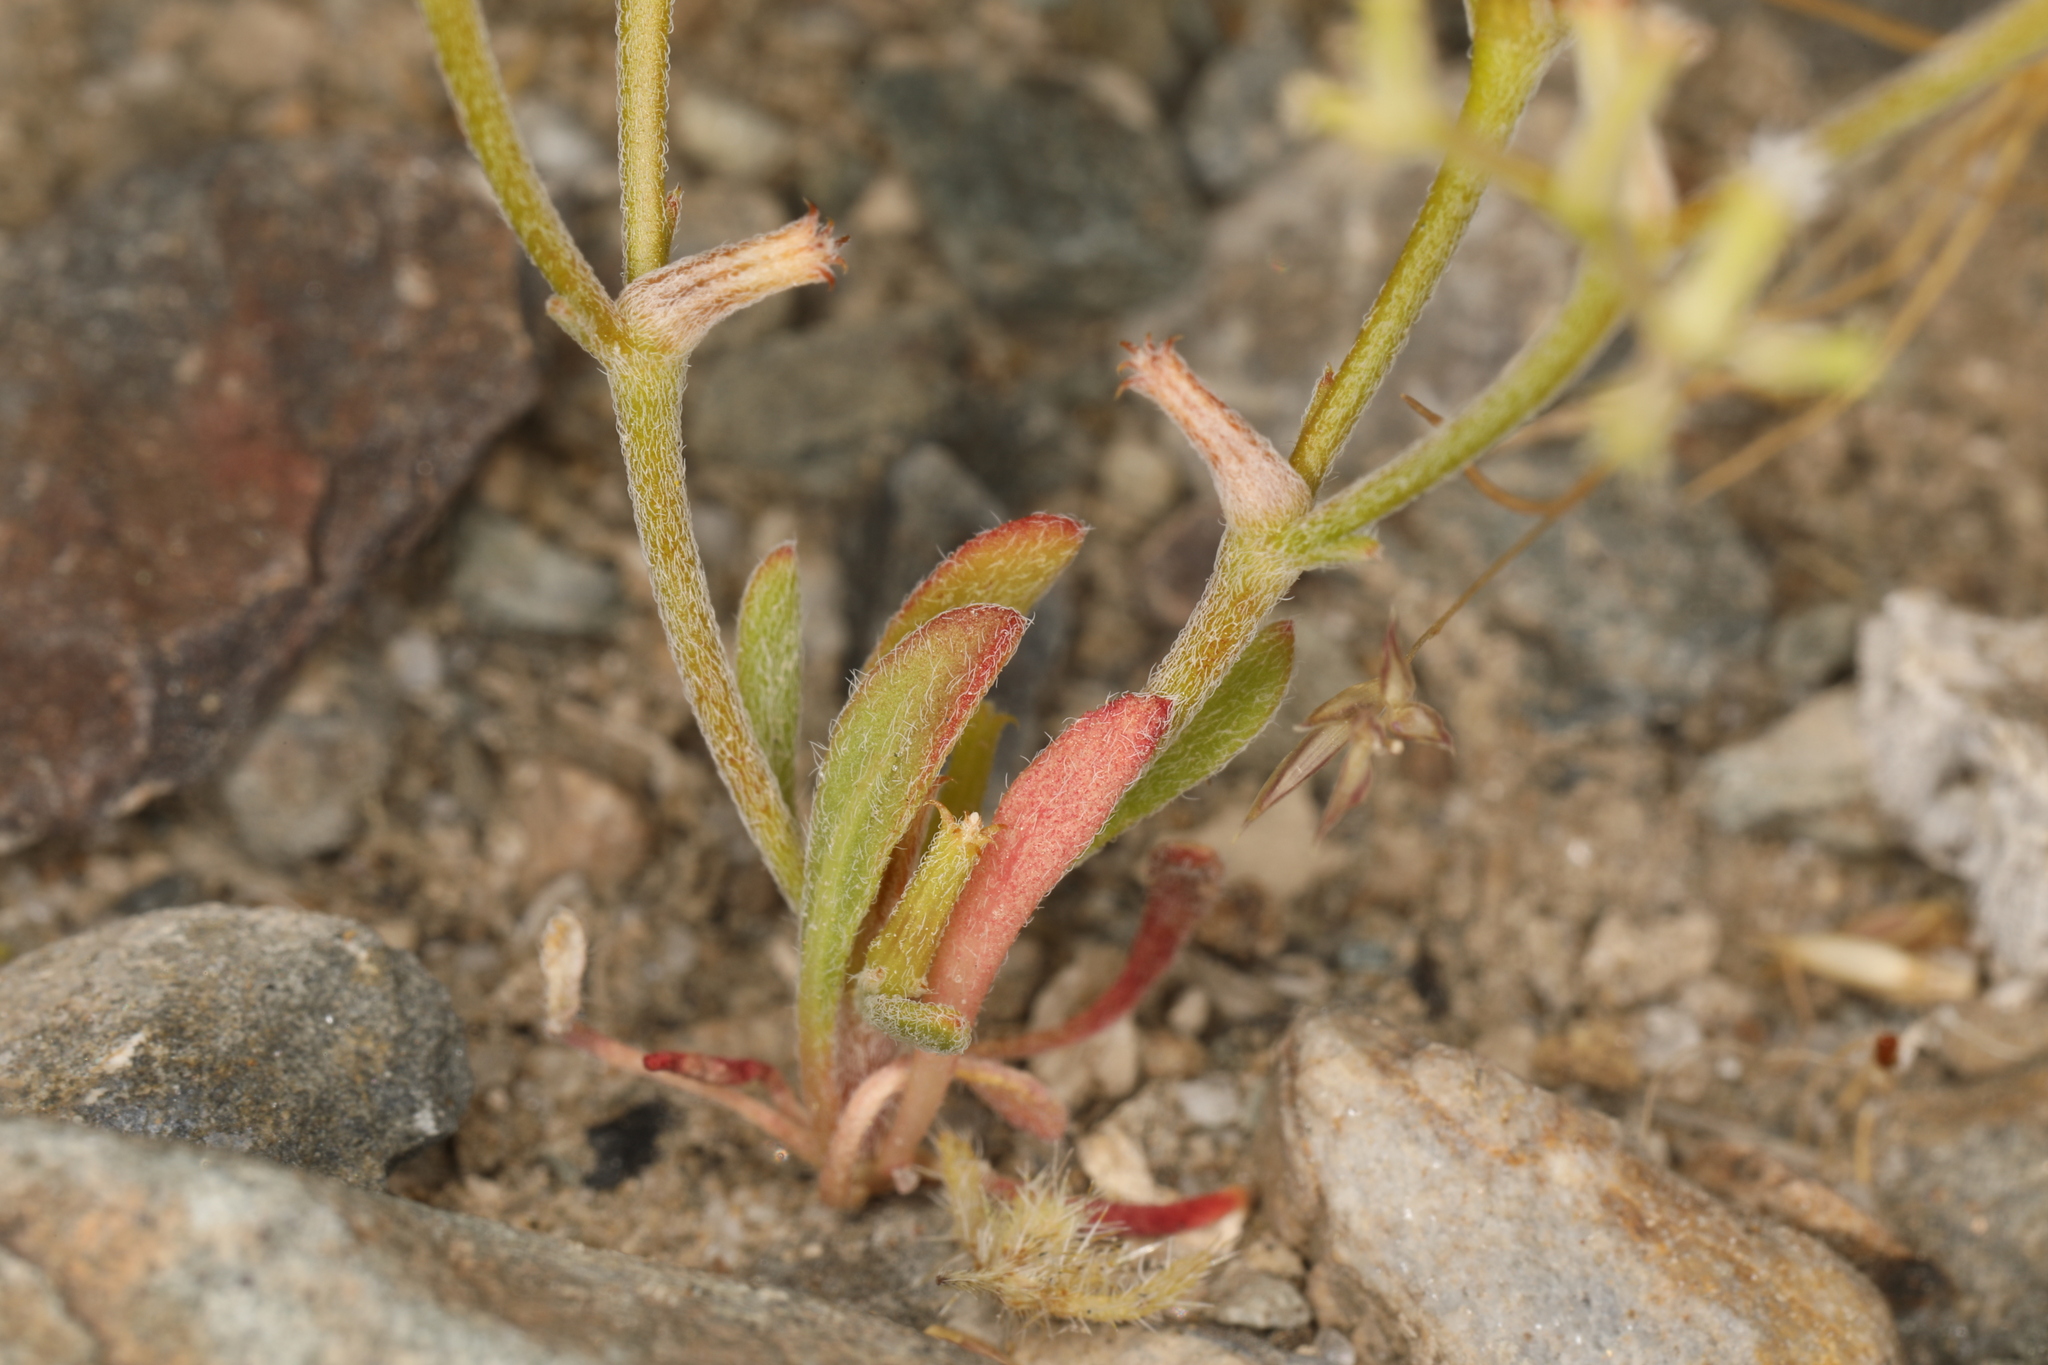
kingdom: Plantae
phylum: Tracheophyta
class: Magnoliopsida
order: Caryophyllales
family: Polygonaceae
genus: Chorizanthe
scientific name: Chorizanthe brevicornu
